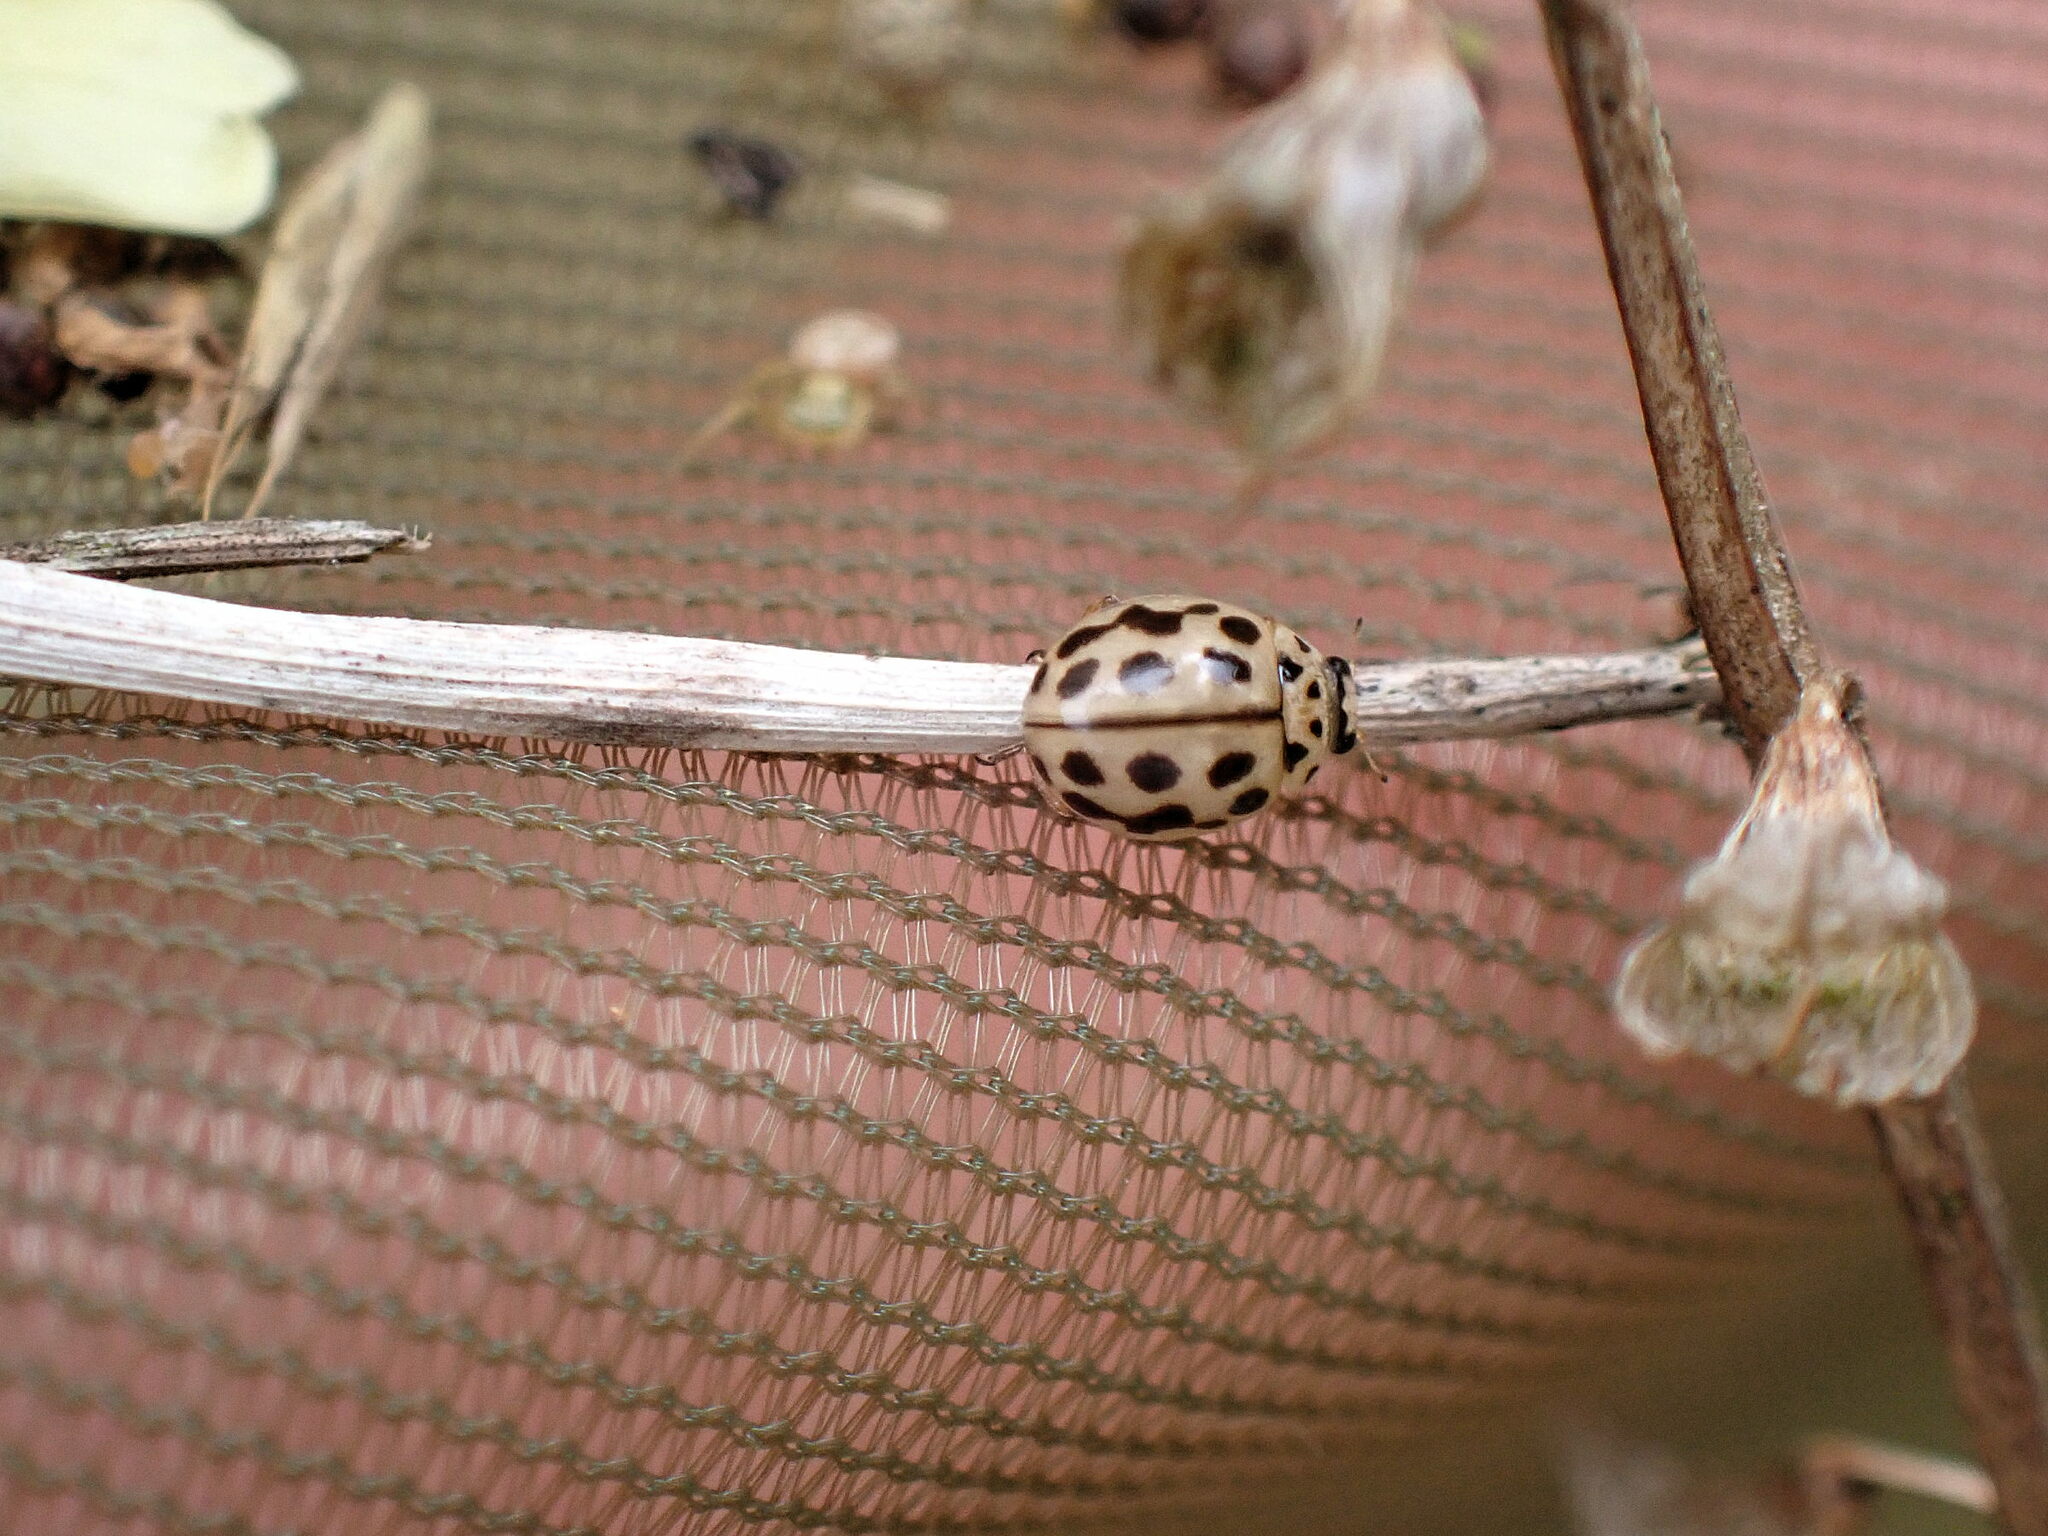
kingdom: Animalia
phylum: Arthropoda
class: Insecta
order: Coleoptera
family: Coccinellidae
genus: Tytthaspis
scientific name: Tytthaspis sedecimpunctata
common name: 16-spot ladybird
